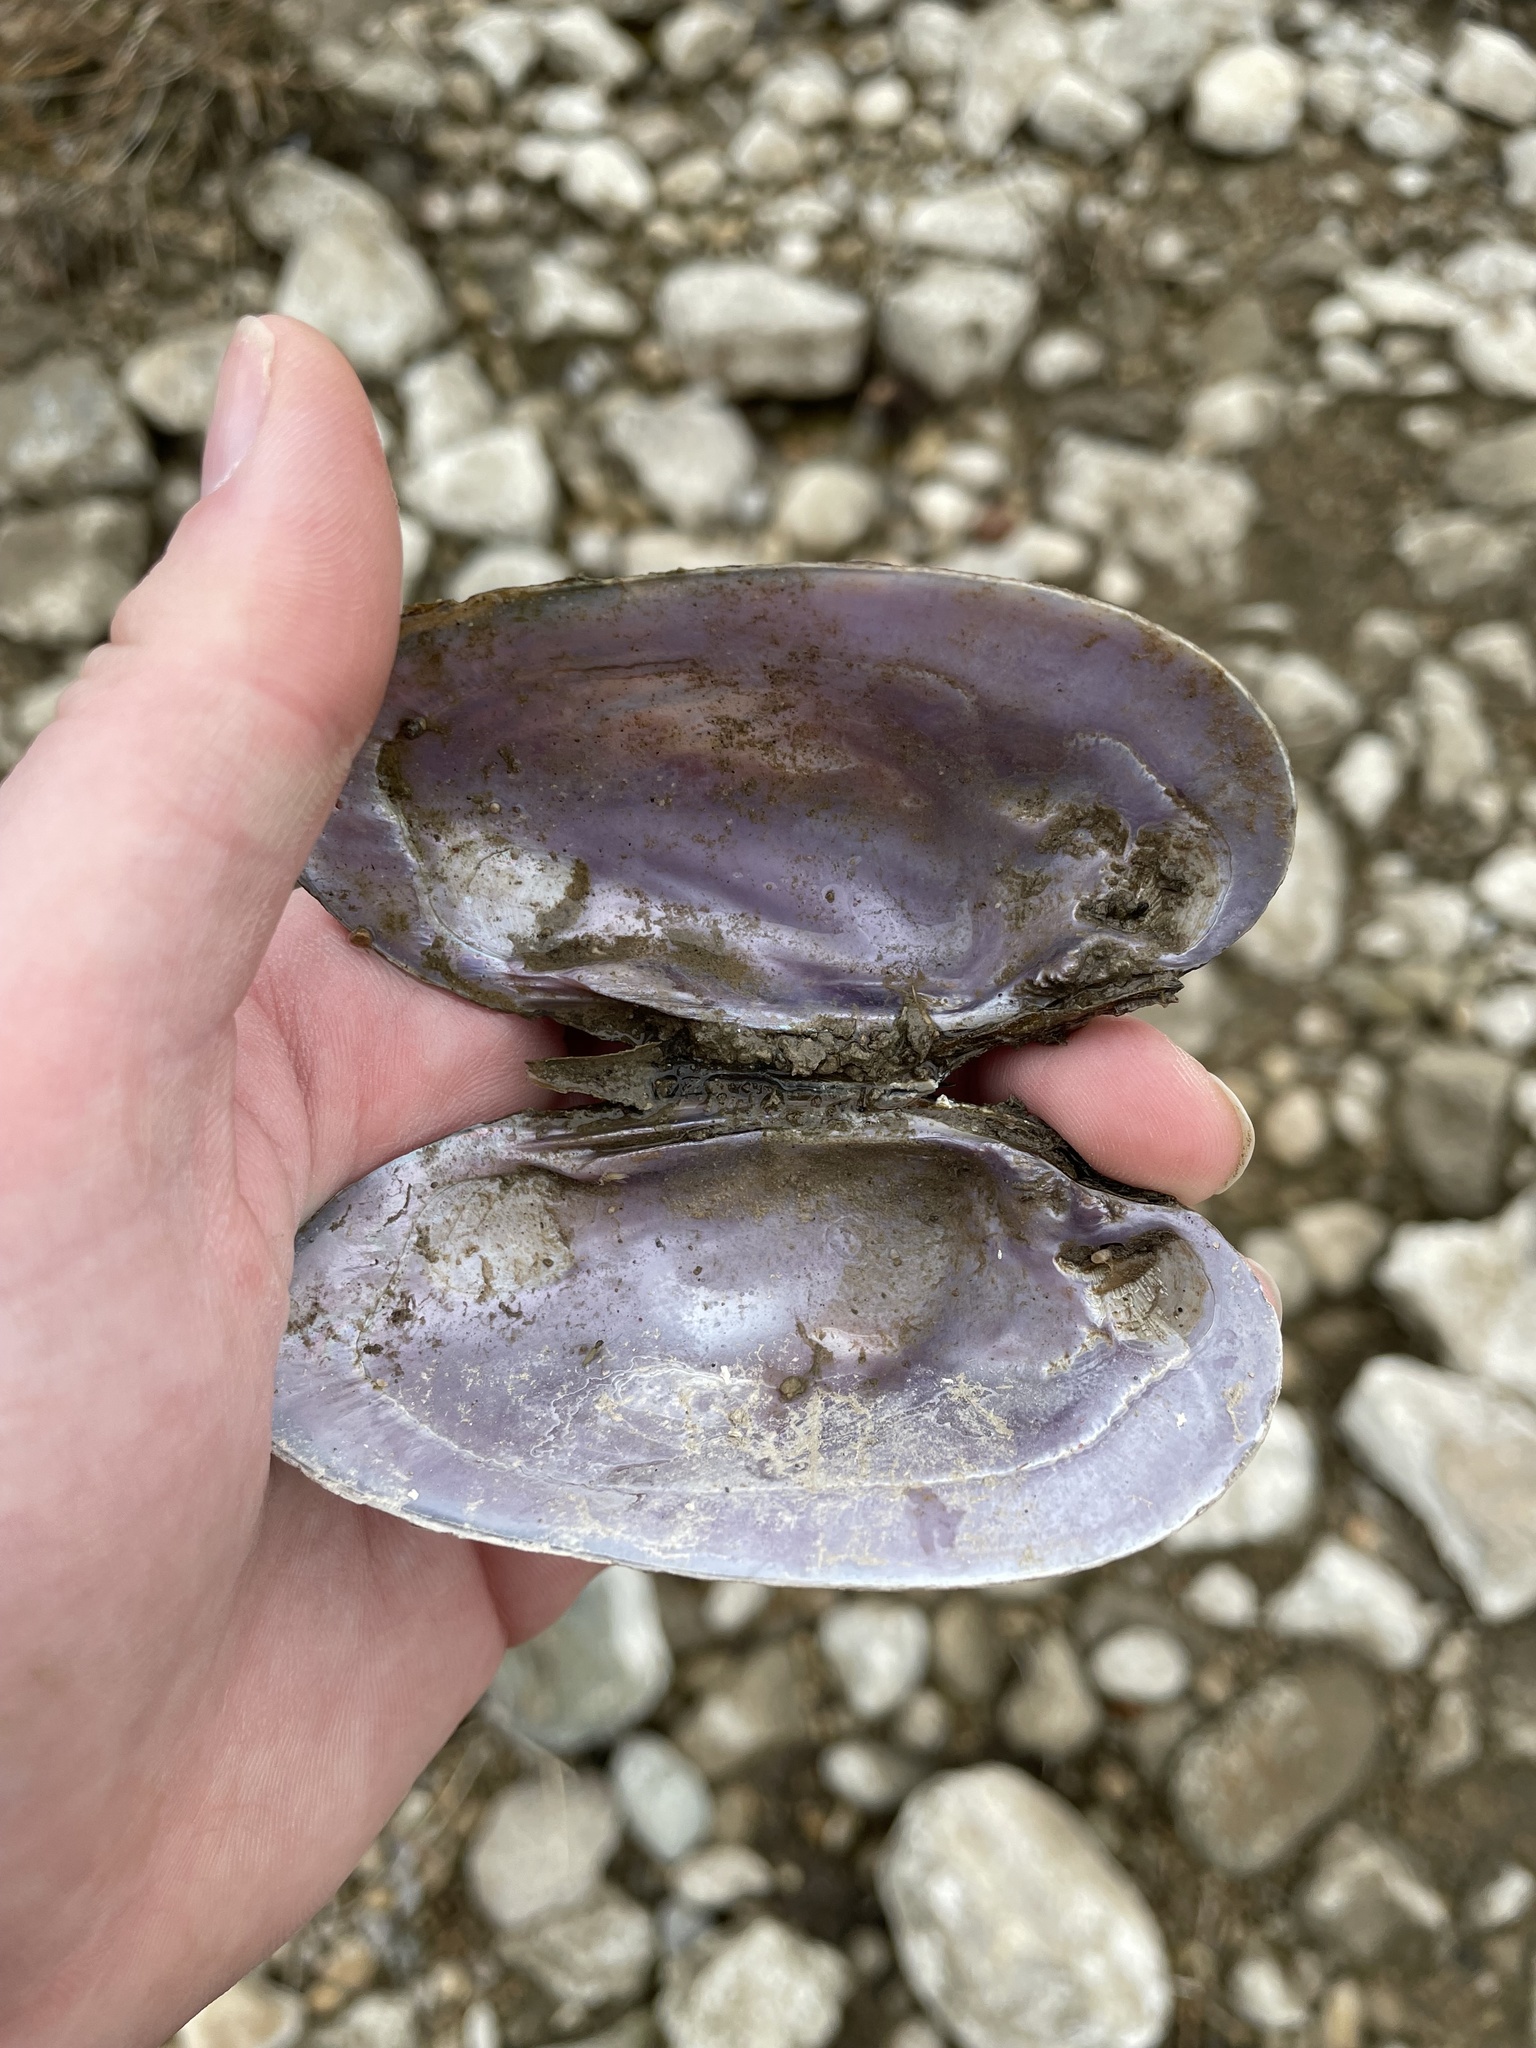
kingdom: Animalia
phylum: Mollusca
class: Bivalvia
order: Unionida
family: Unionidae
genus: Eurynia
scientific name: Eurynia dilatata
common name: Spike
